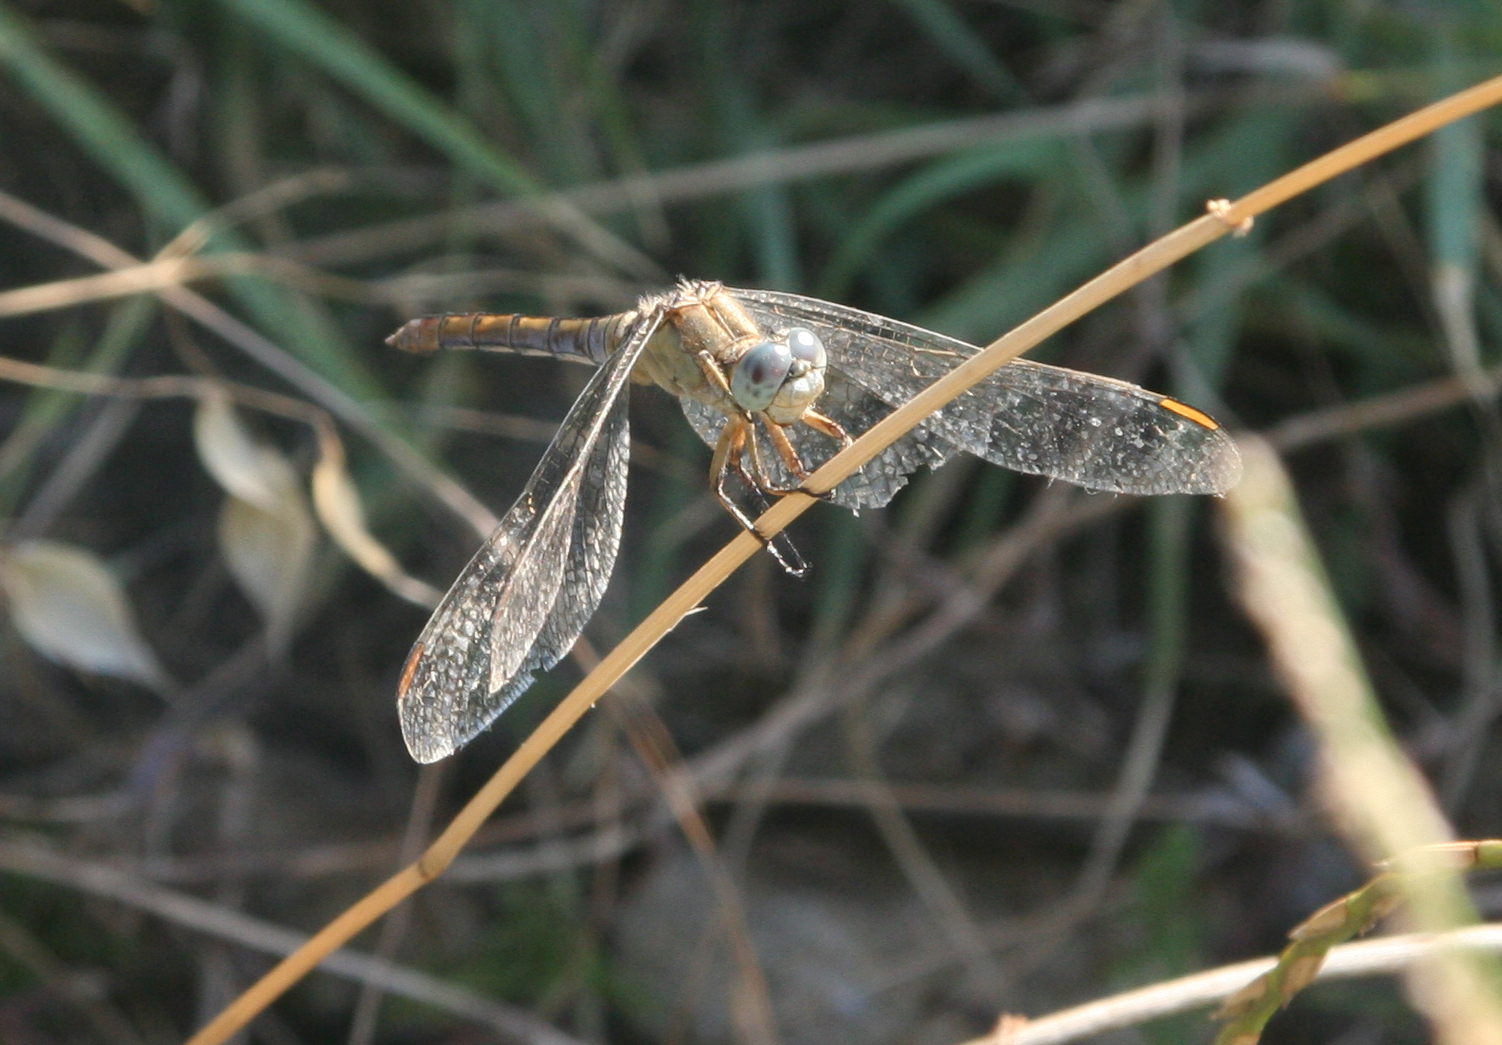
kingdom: Animalia
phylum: Arthropoda
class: Insecta
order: Odonata
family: Libellulidae
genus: Orthetrum
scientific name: Orthetrum coerulescens
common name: Keeled skimmer
